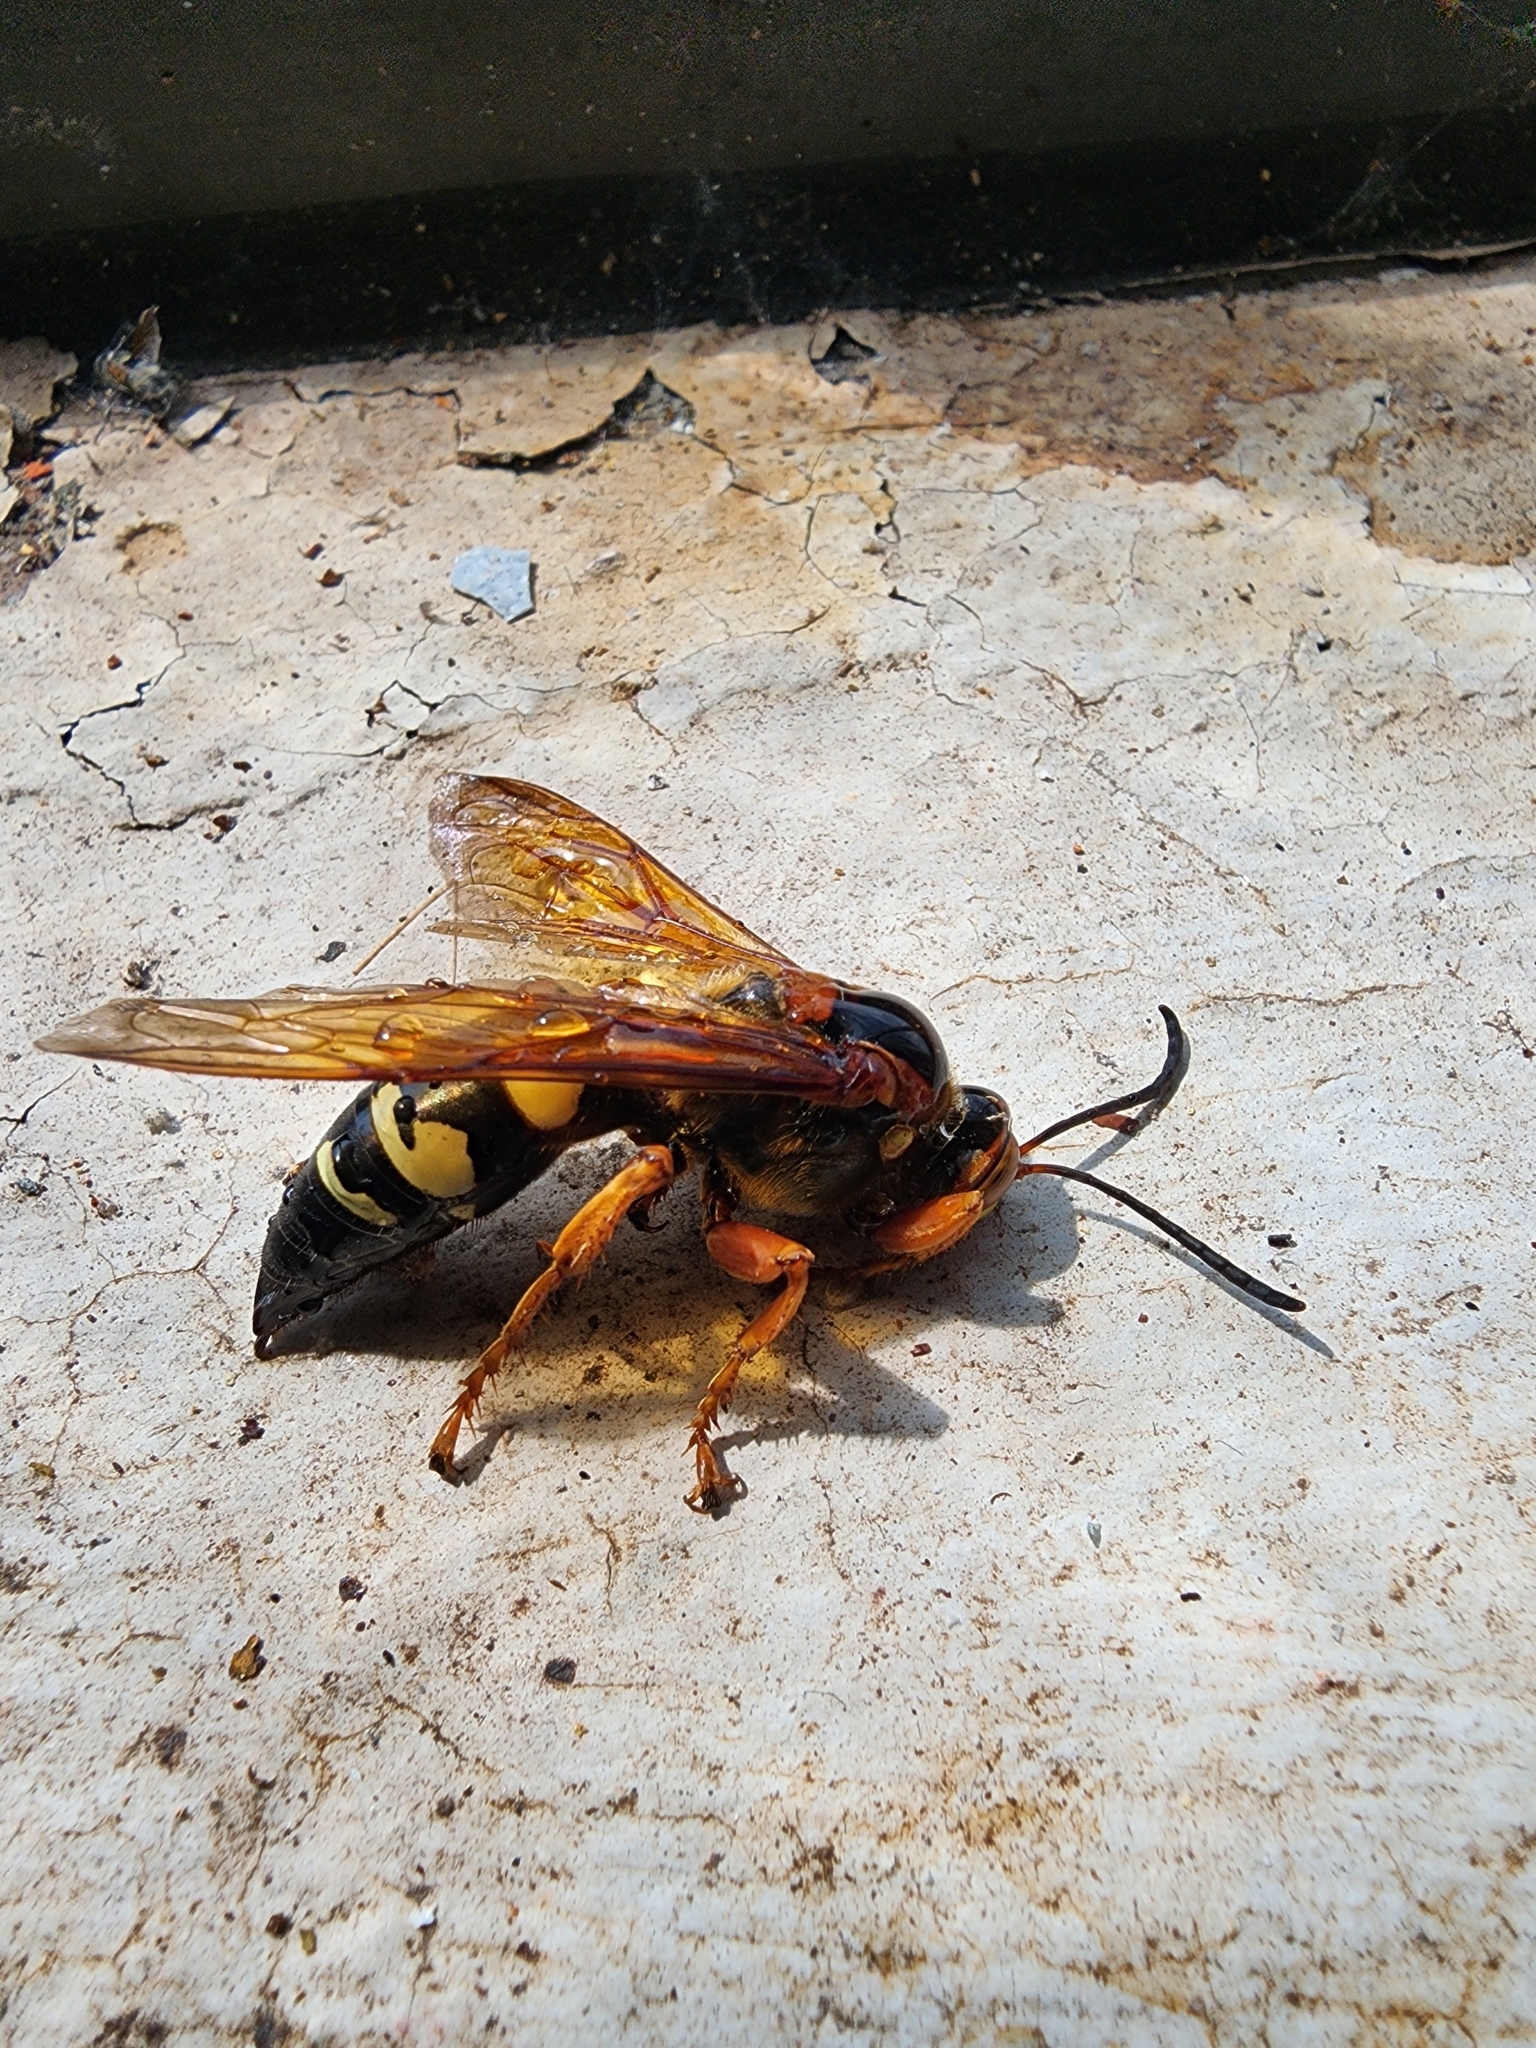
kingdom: Animalia
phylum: Arthropoda
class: Insecta
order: Hymenoptera
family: Crabronidae
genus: Sphecius
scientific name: Sphecius speciosus
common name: Cicada killer
